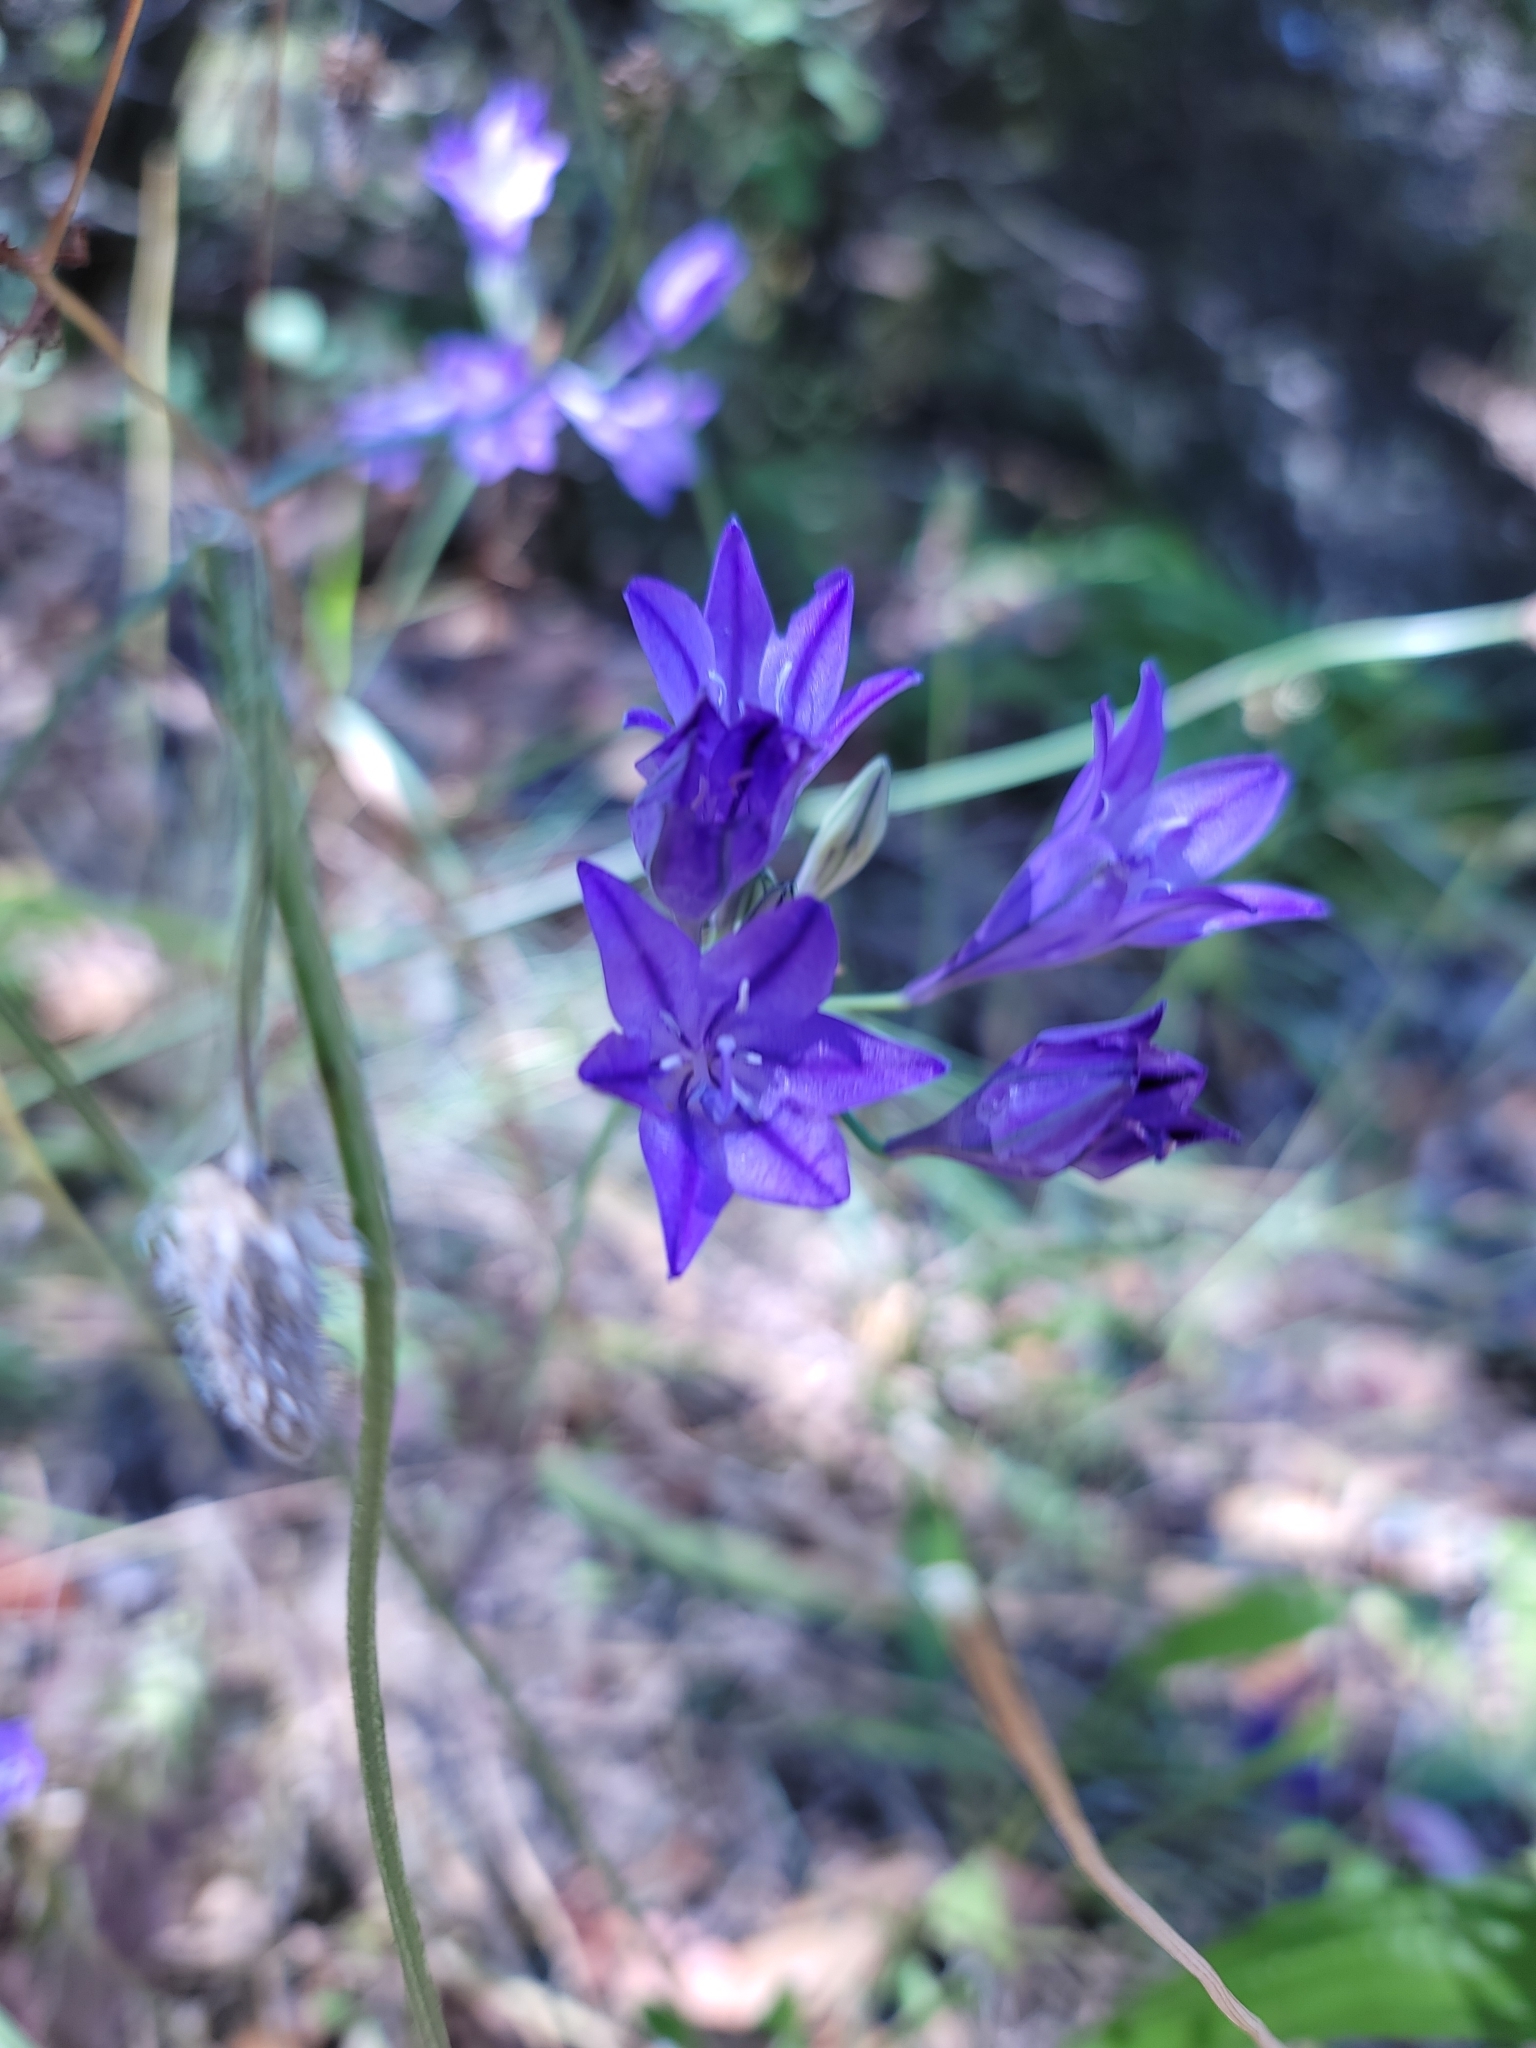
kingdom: Plantae
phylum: Tracheophyta
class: Liliopsida
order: Asparagales
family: Asparagaceae
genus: Triteleia
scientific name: Triteleia laxa
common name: Triplet-lily
